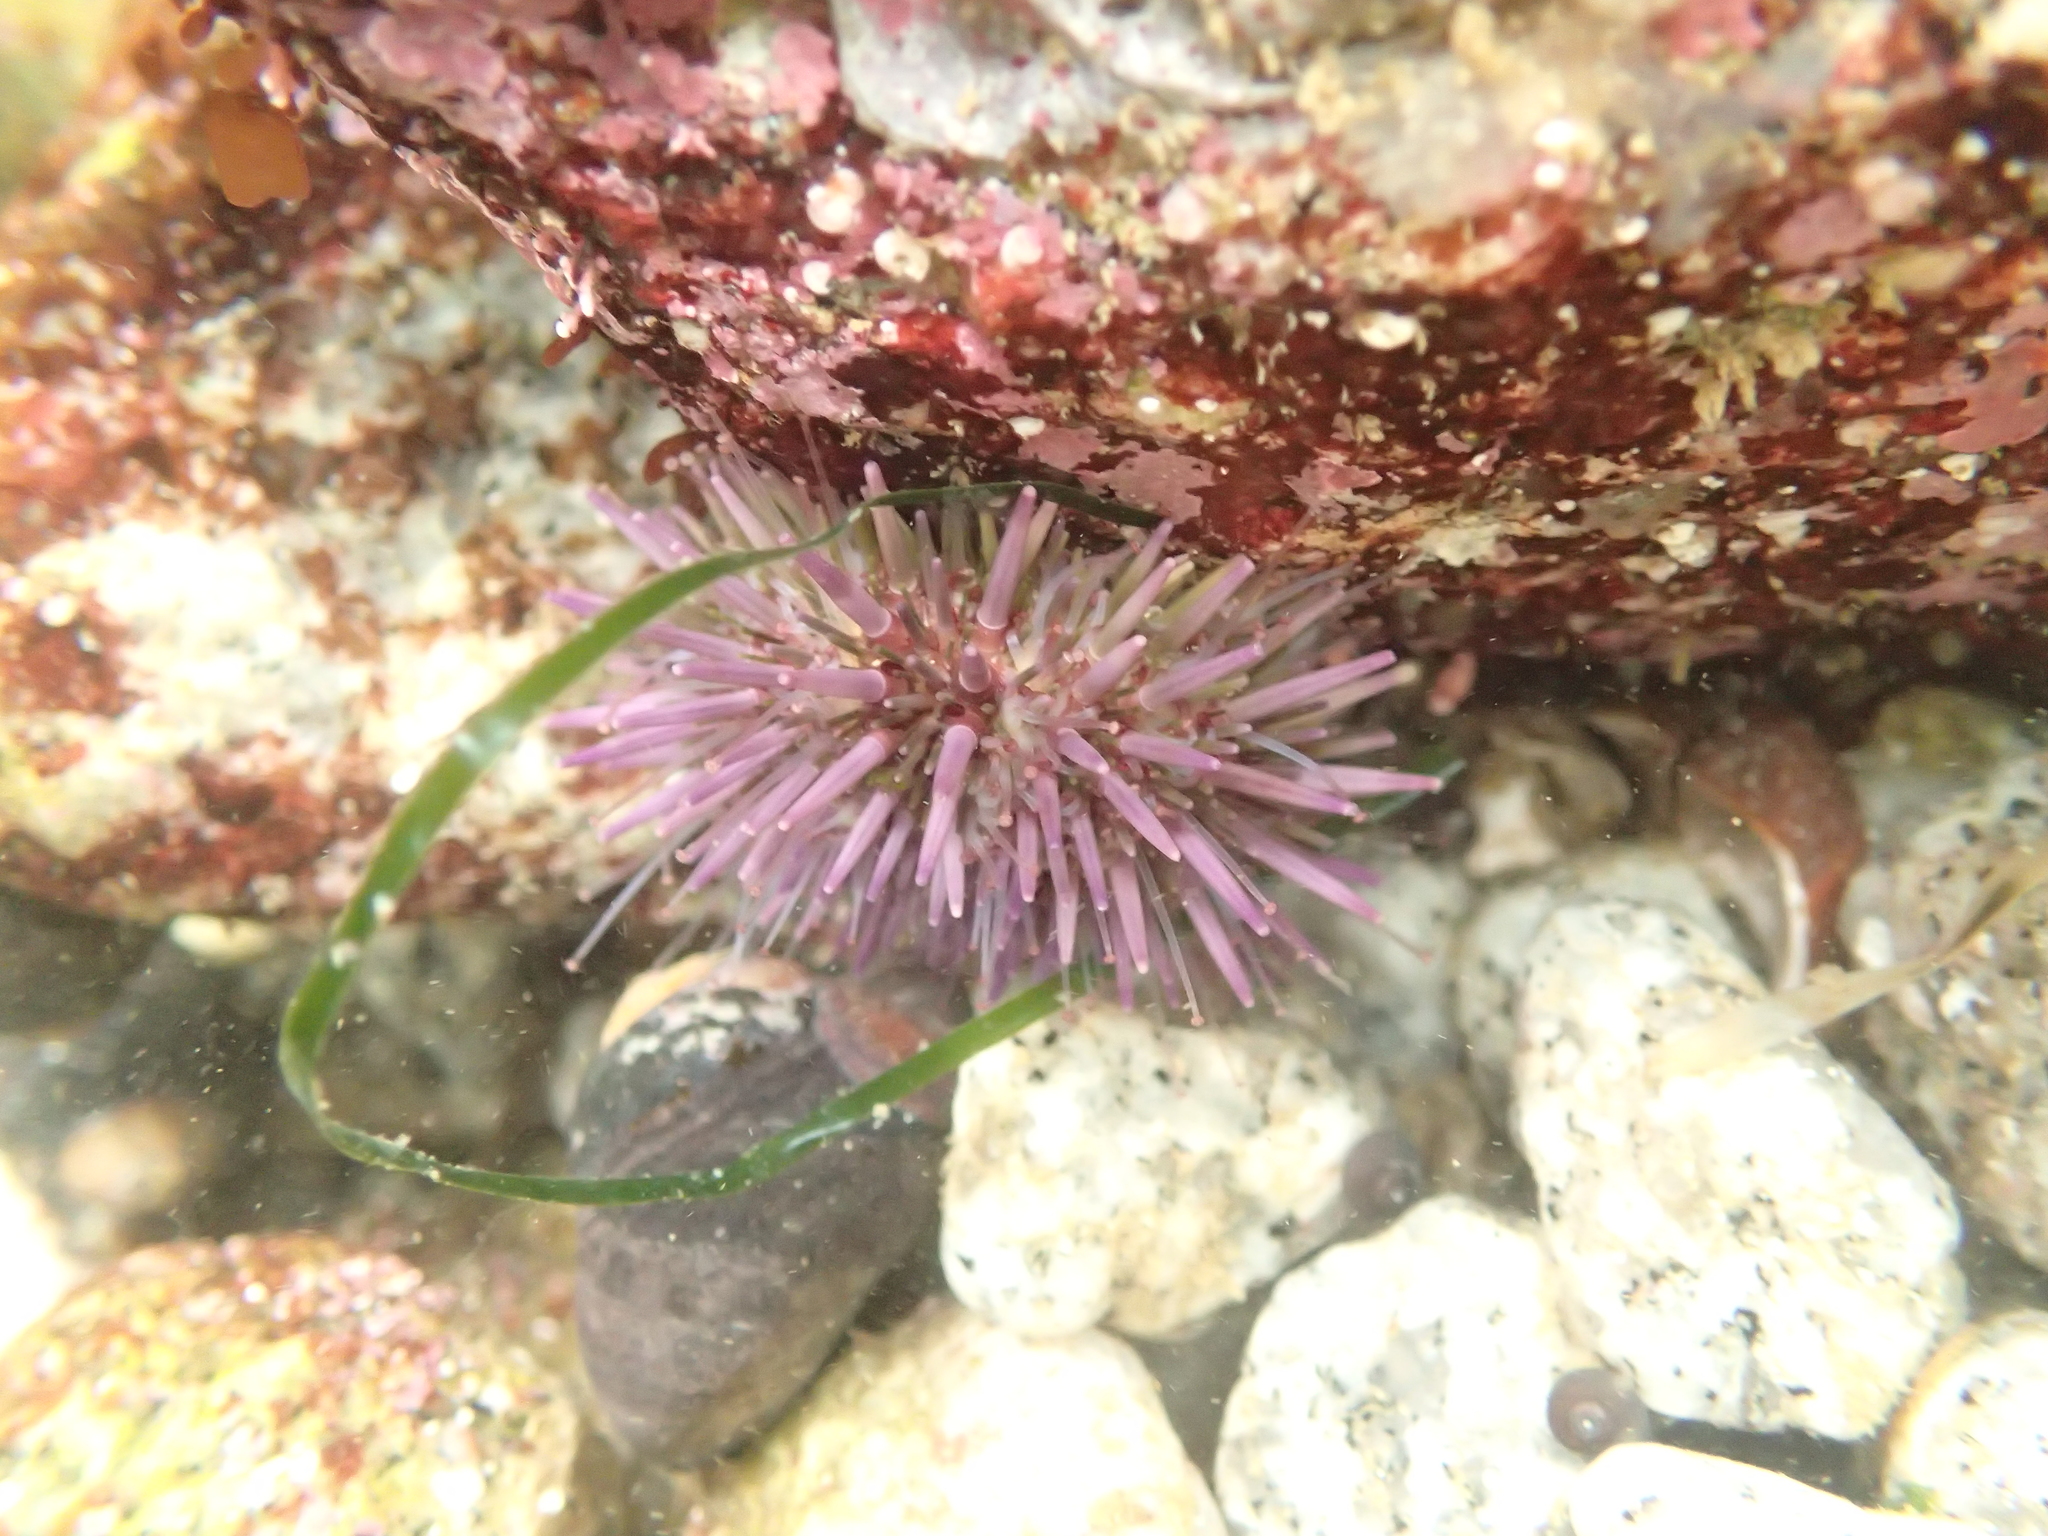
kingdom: Animalia
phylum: Echinodermata
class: Echinoidea
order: Camarodonta
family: Strongylocentrotidae
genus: Strongylocentrotus
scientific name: Strongylocentrotus purpuratus
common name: Purple sea urchin
